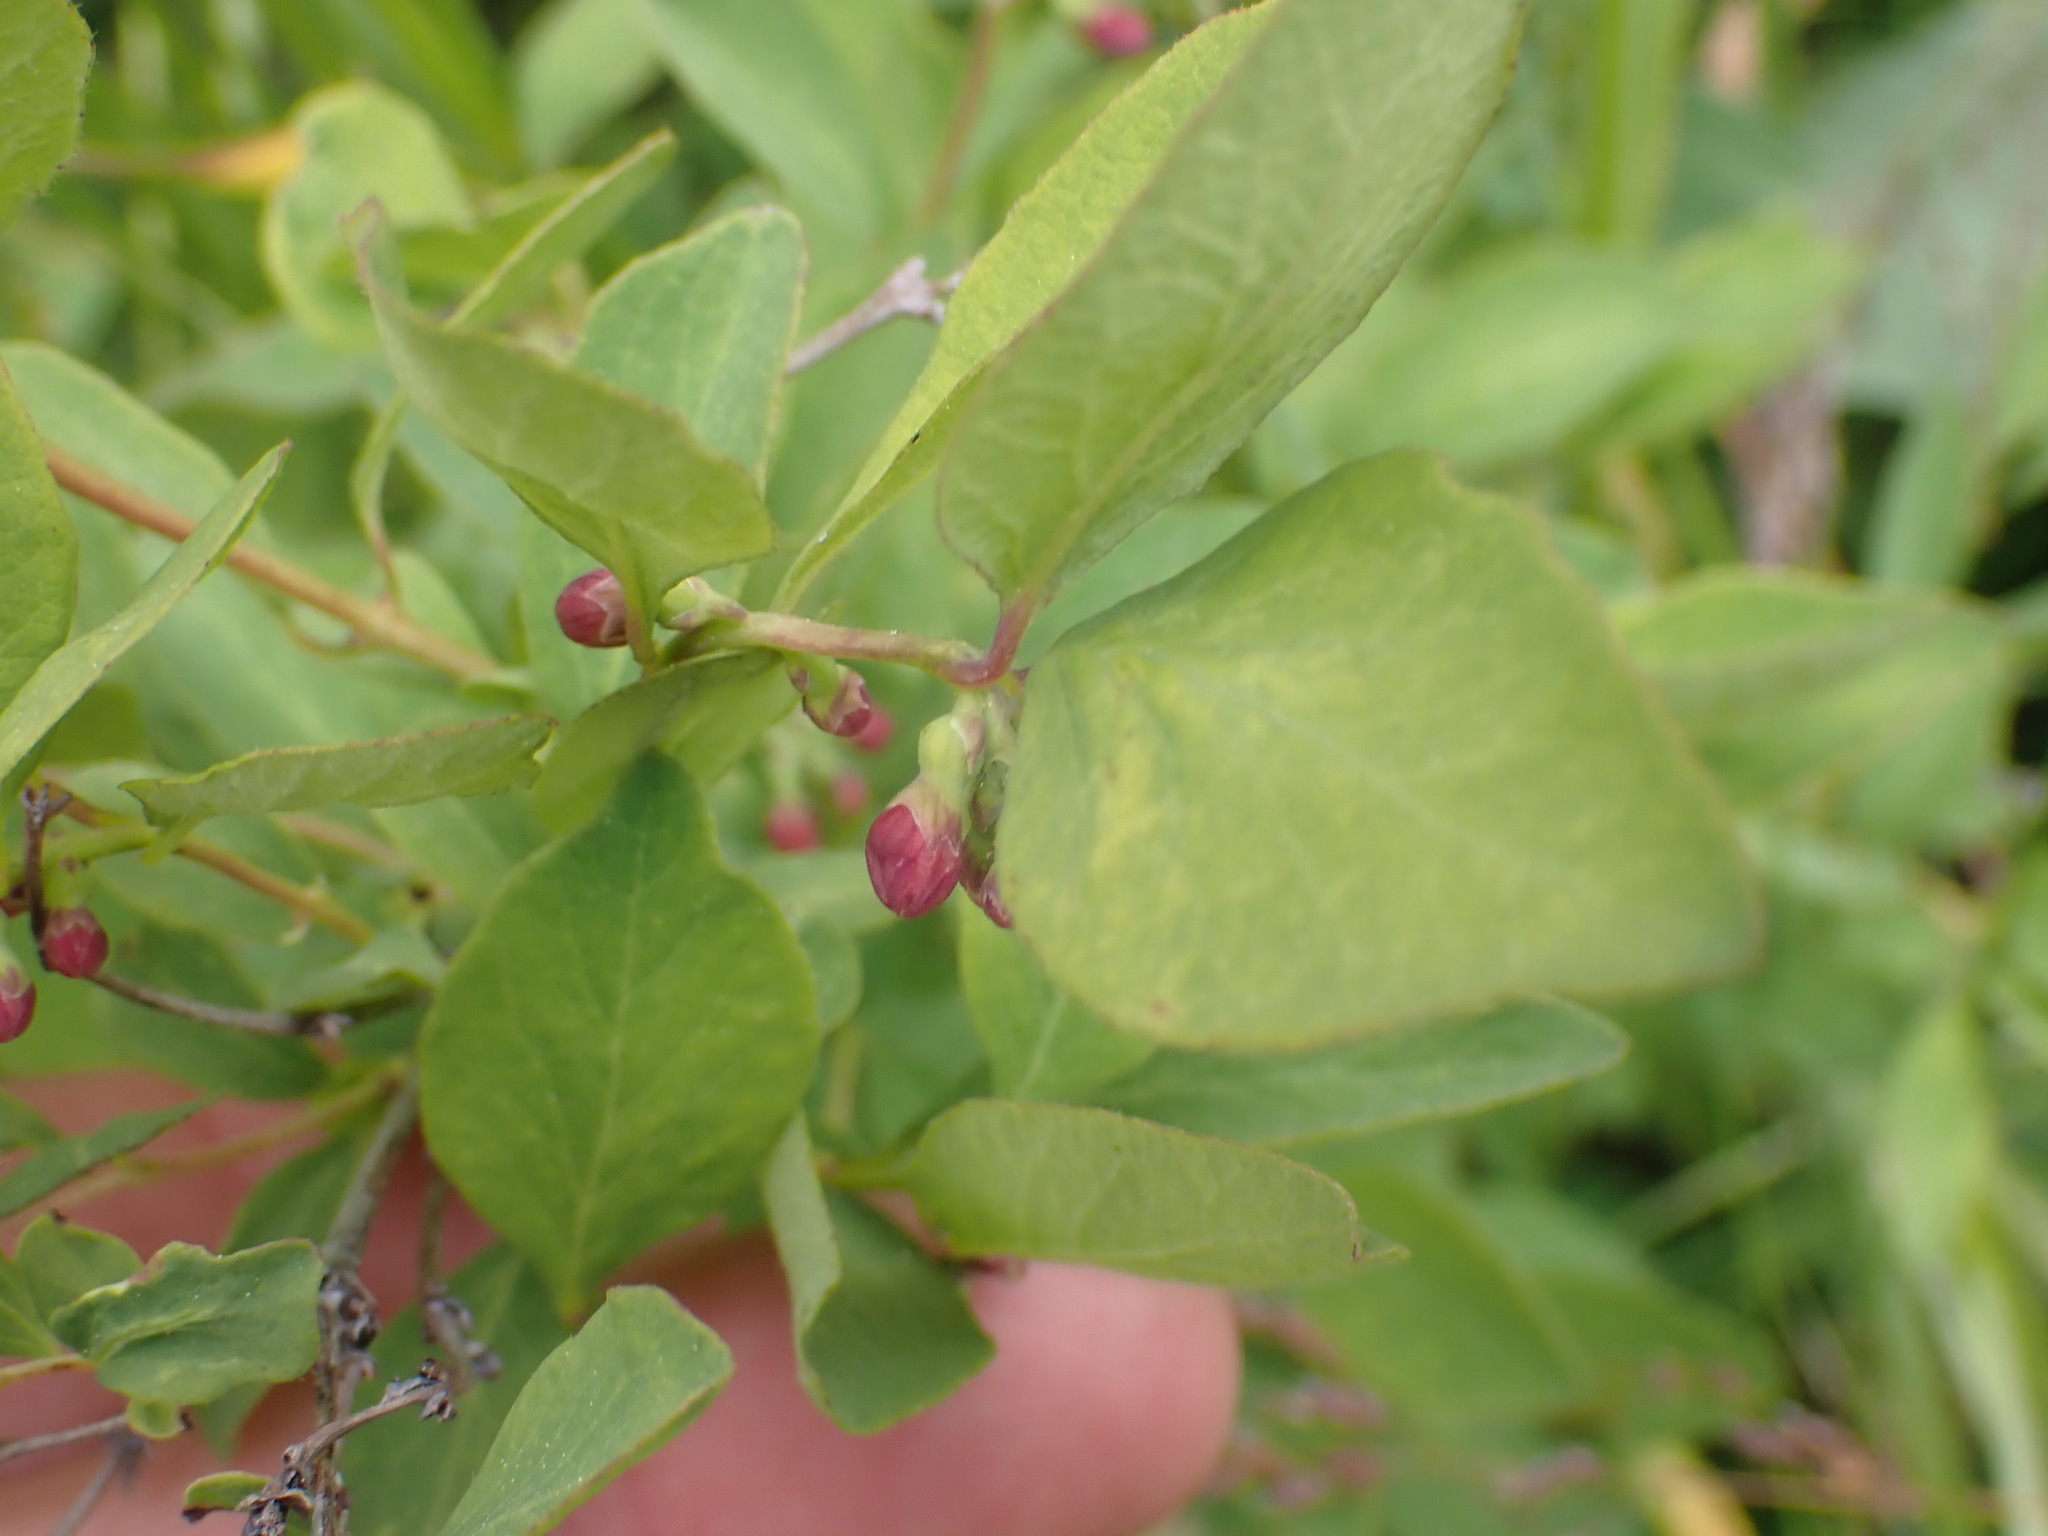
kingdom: Plantae
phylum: Tracheophyta
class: Magnoliopsida
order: Dipsacales
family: Caprifoliaceae
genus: Symphoricarpos
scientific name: Symphoricarpos albus
